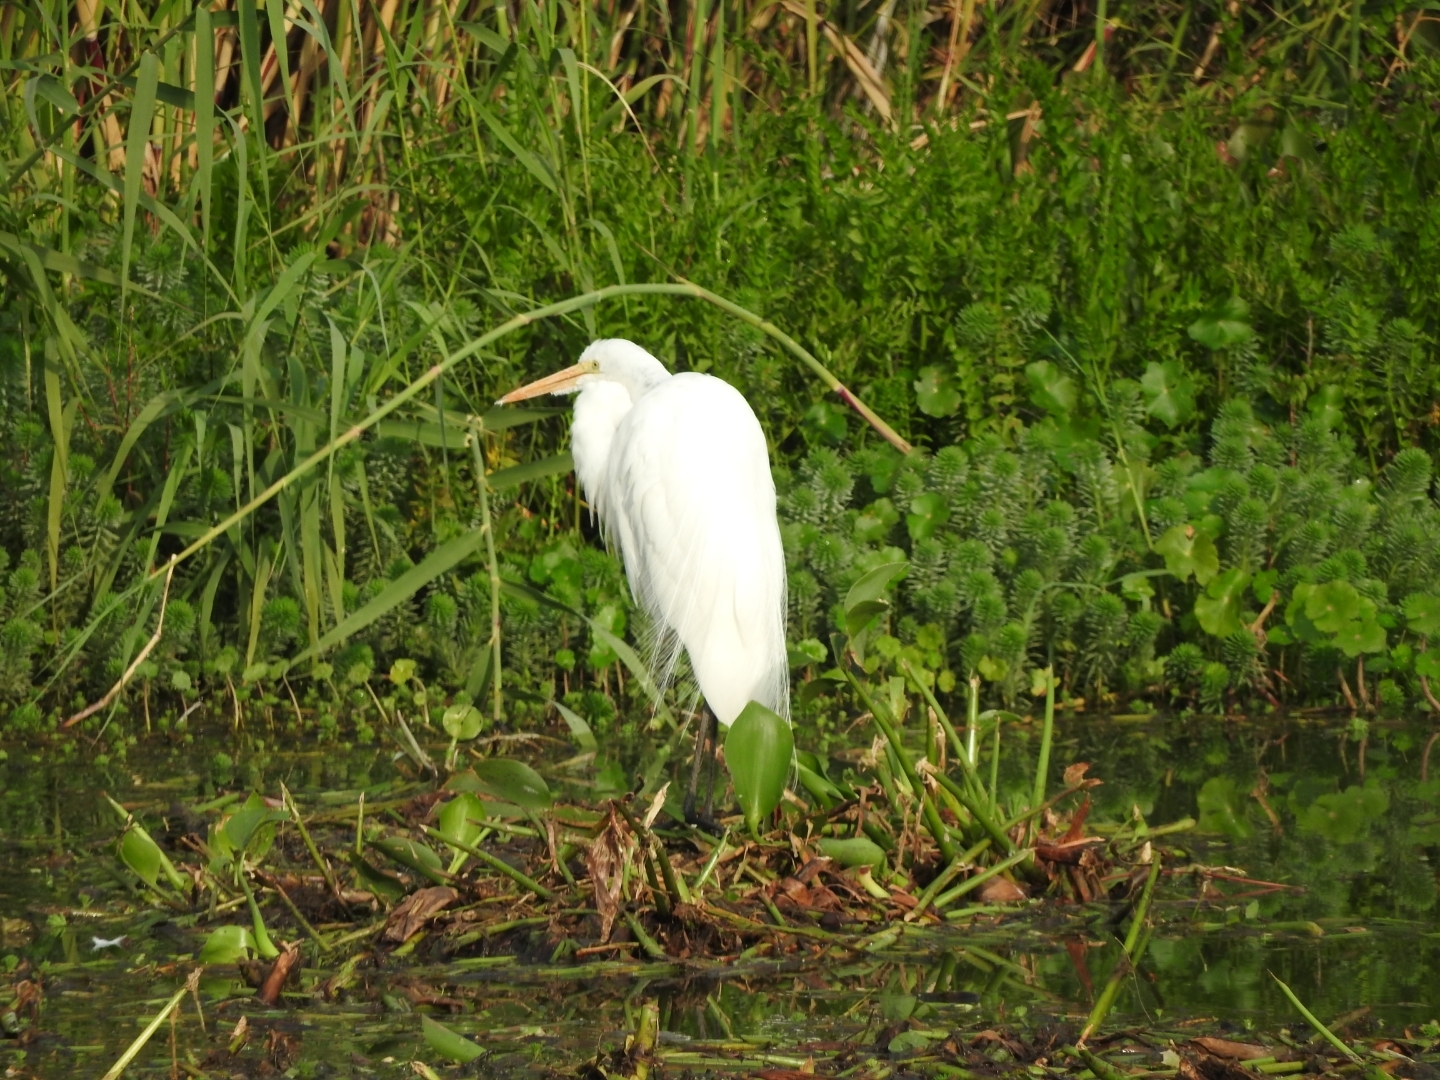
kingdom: Animalia
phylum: Chordata
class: Aves
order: Pelecaniformes
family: Ardeidae
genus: Ardea
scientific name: Ardea alba
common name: Great egret
